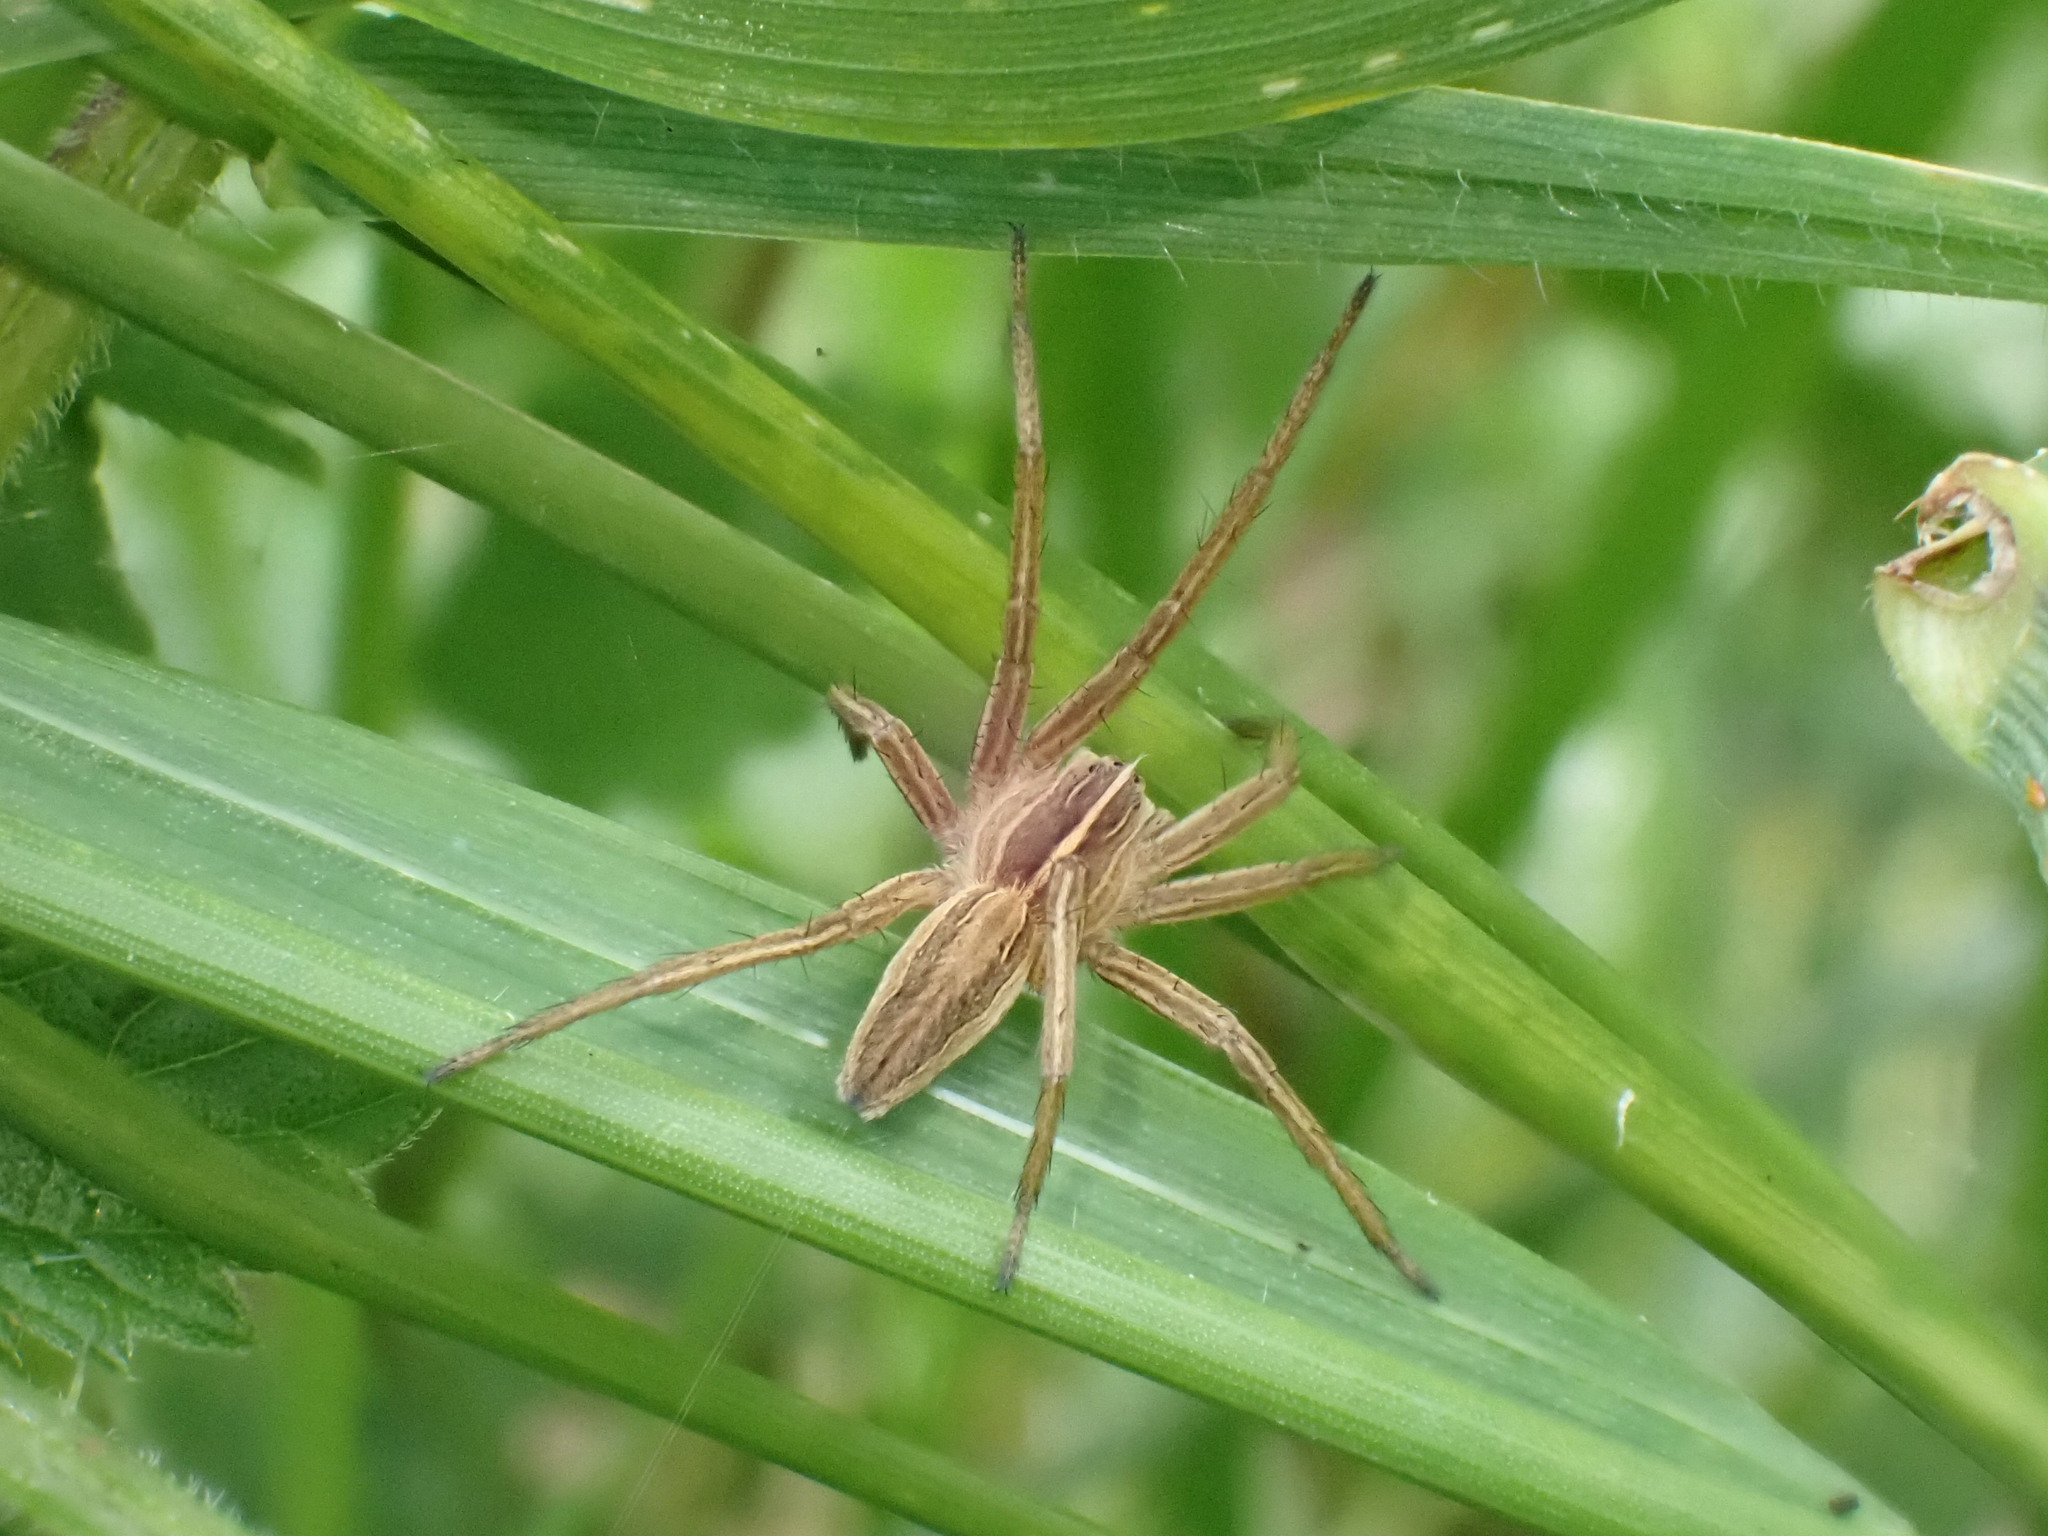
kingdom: Animalia
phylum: Arthropoda
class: Arachnida
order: Araneae
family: Pisauridae
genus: Pisaura
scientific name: Pisaura mirabilis
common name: Tent spider
